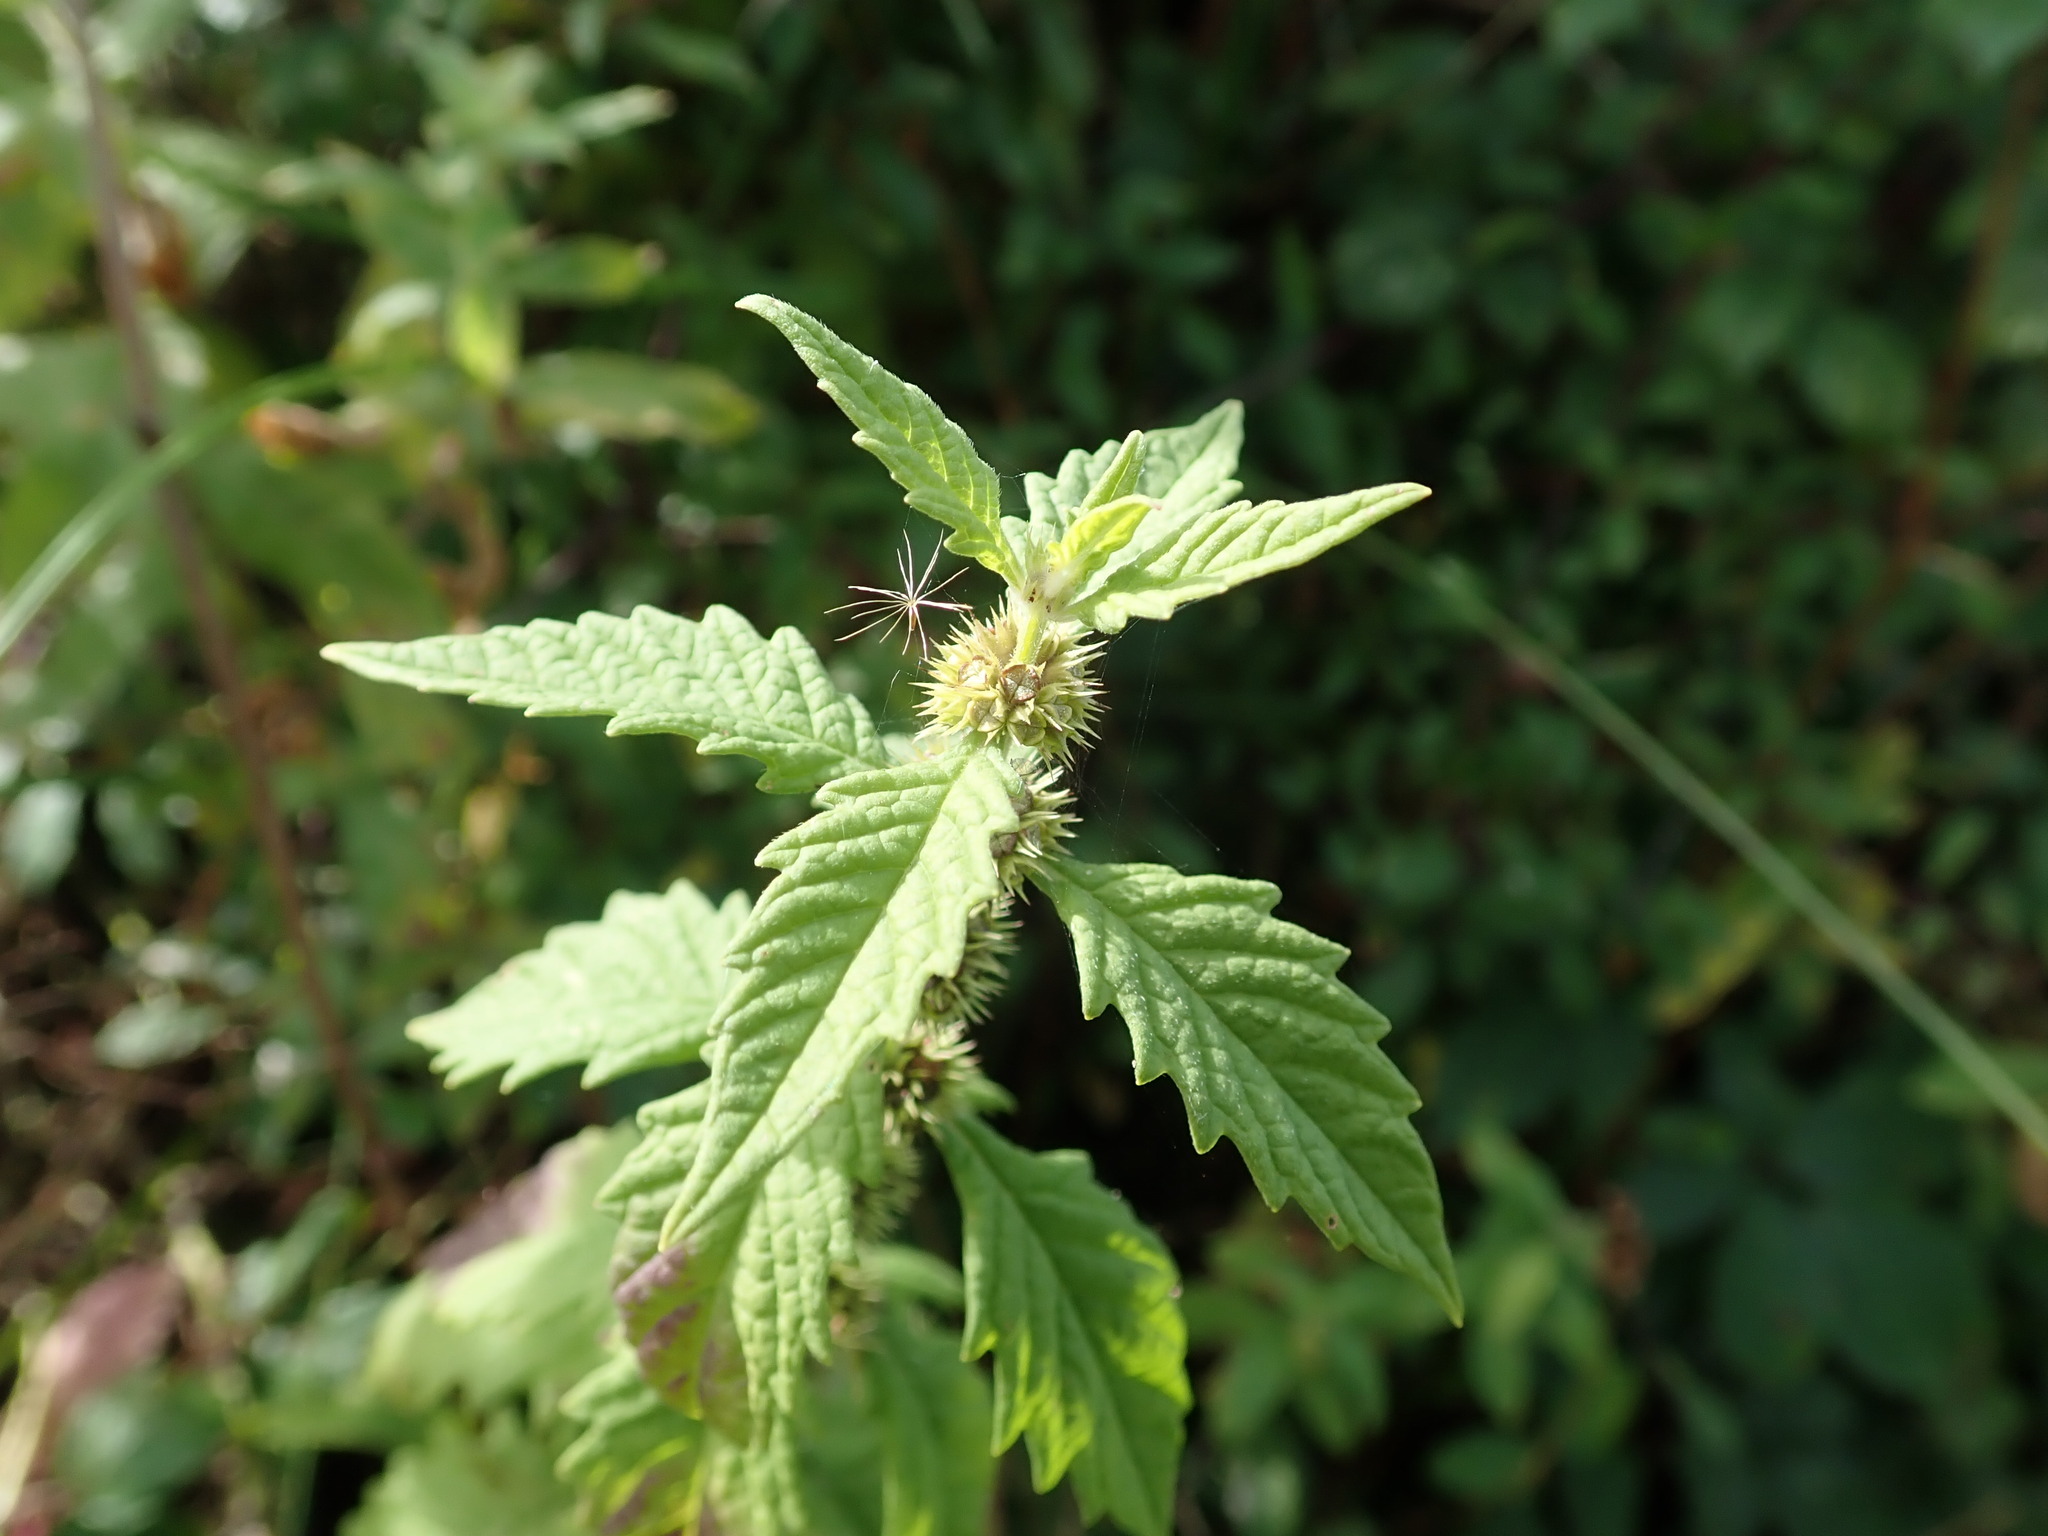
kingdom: Plantae
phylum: Tracheophyta
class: Magnoliopsida
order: Lamiales
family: Lamiaceae
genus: Lycopus
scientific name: Lycopus europaeus
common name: European bugleweed
